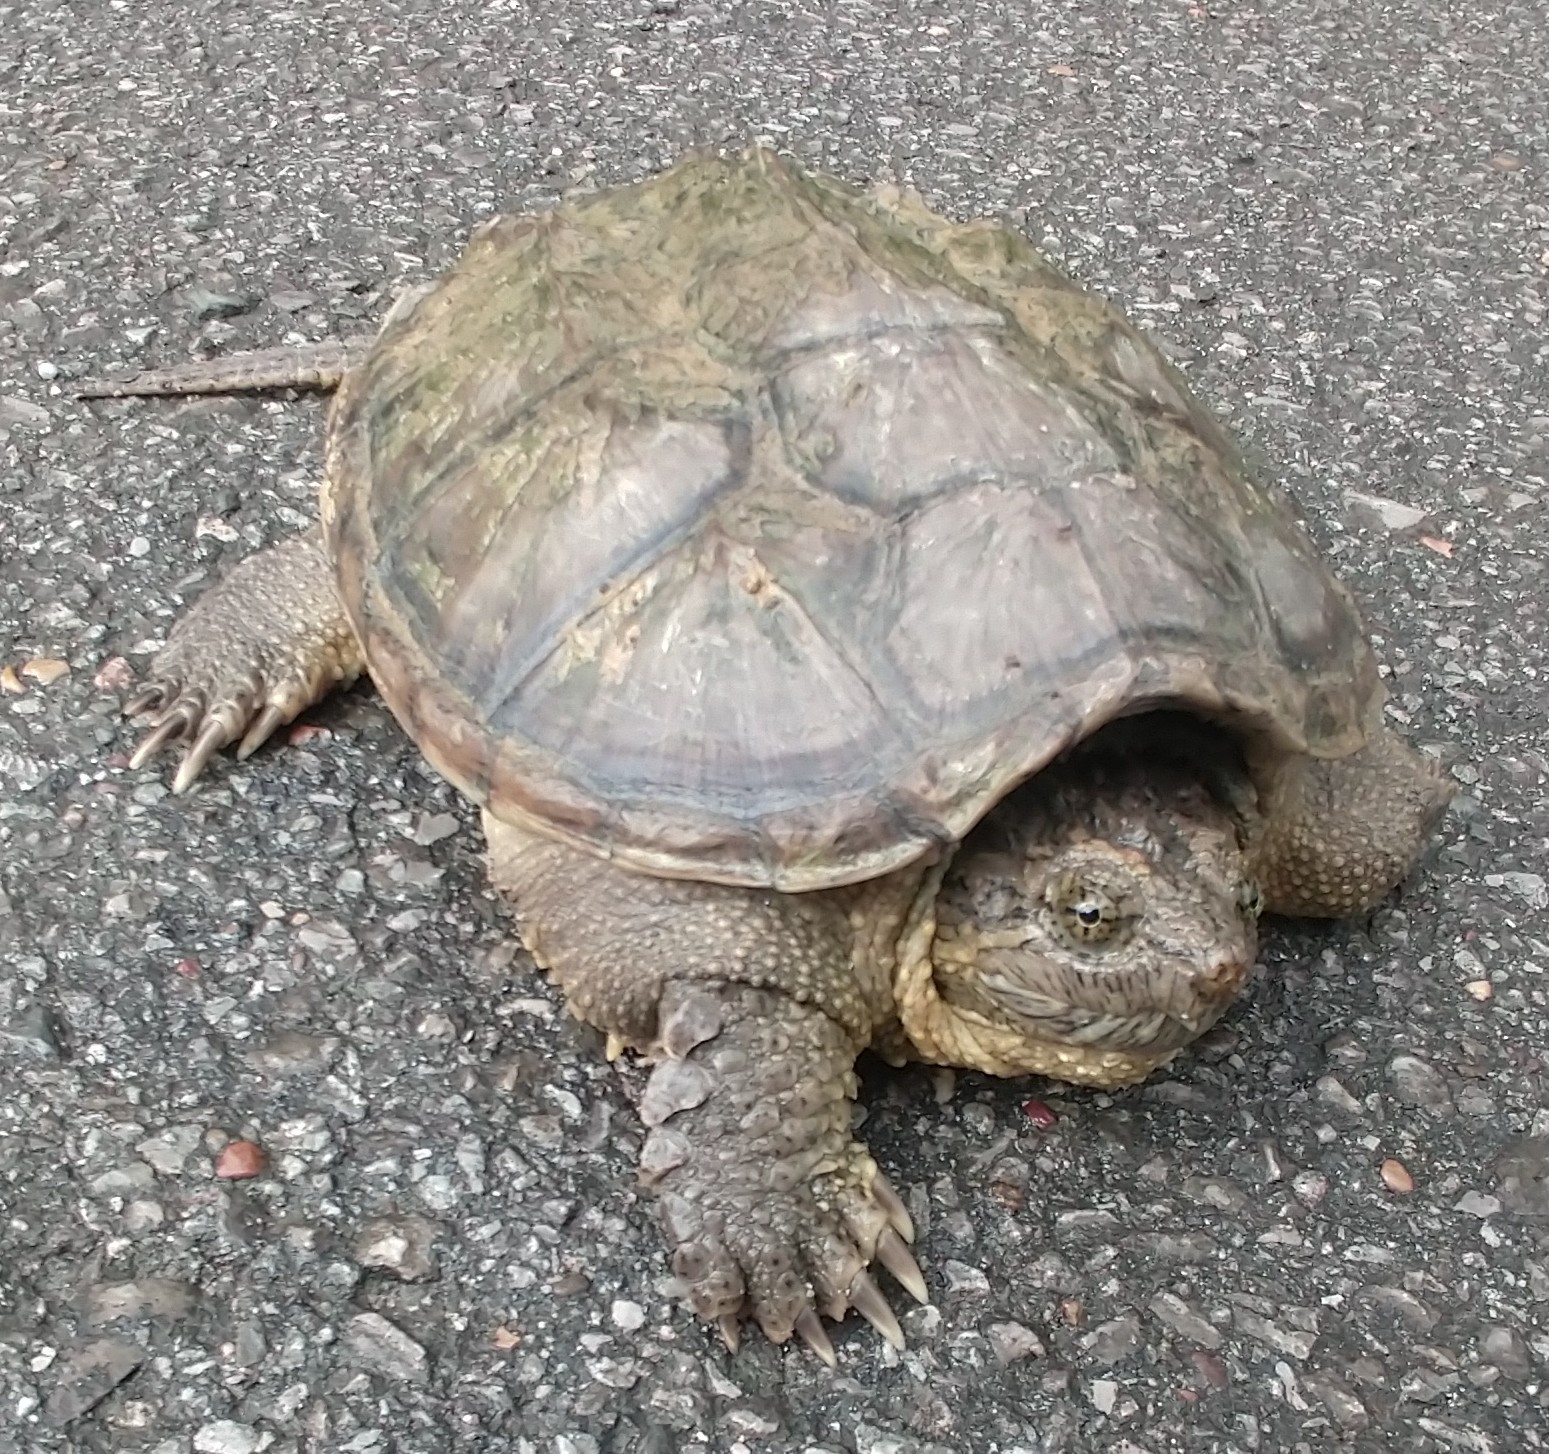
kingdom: Animalia
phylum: Chordata
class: Testudines
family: Chelydridae
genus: Chelydra
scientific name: Chelydra serpentina
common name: Common snapping turtle
